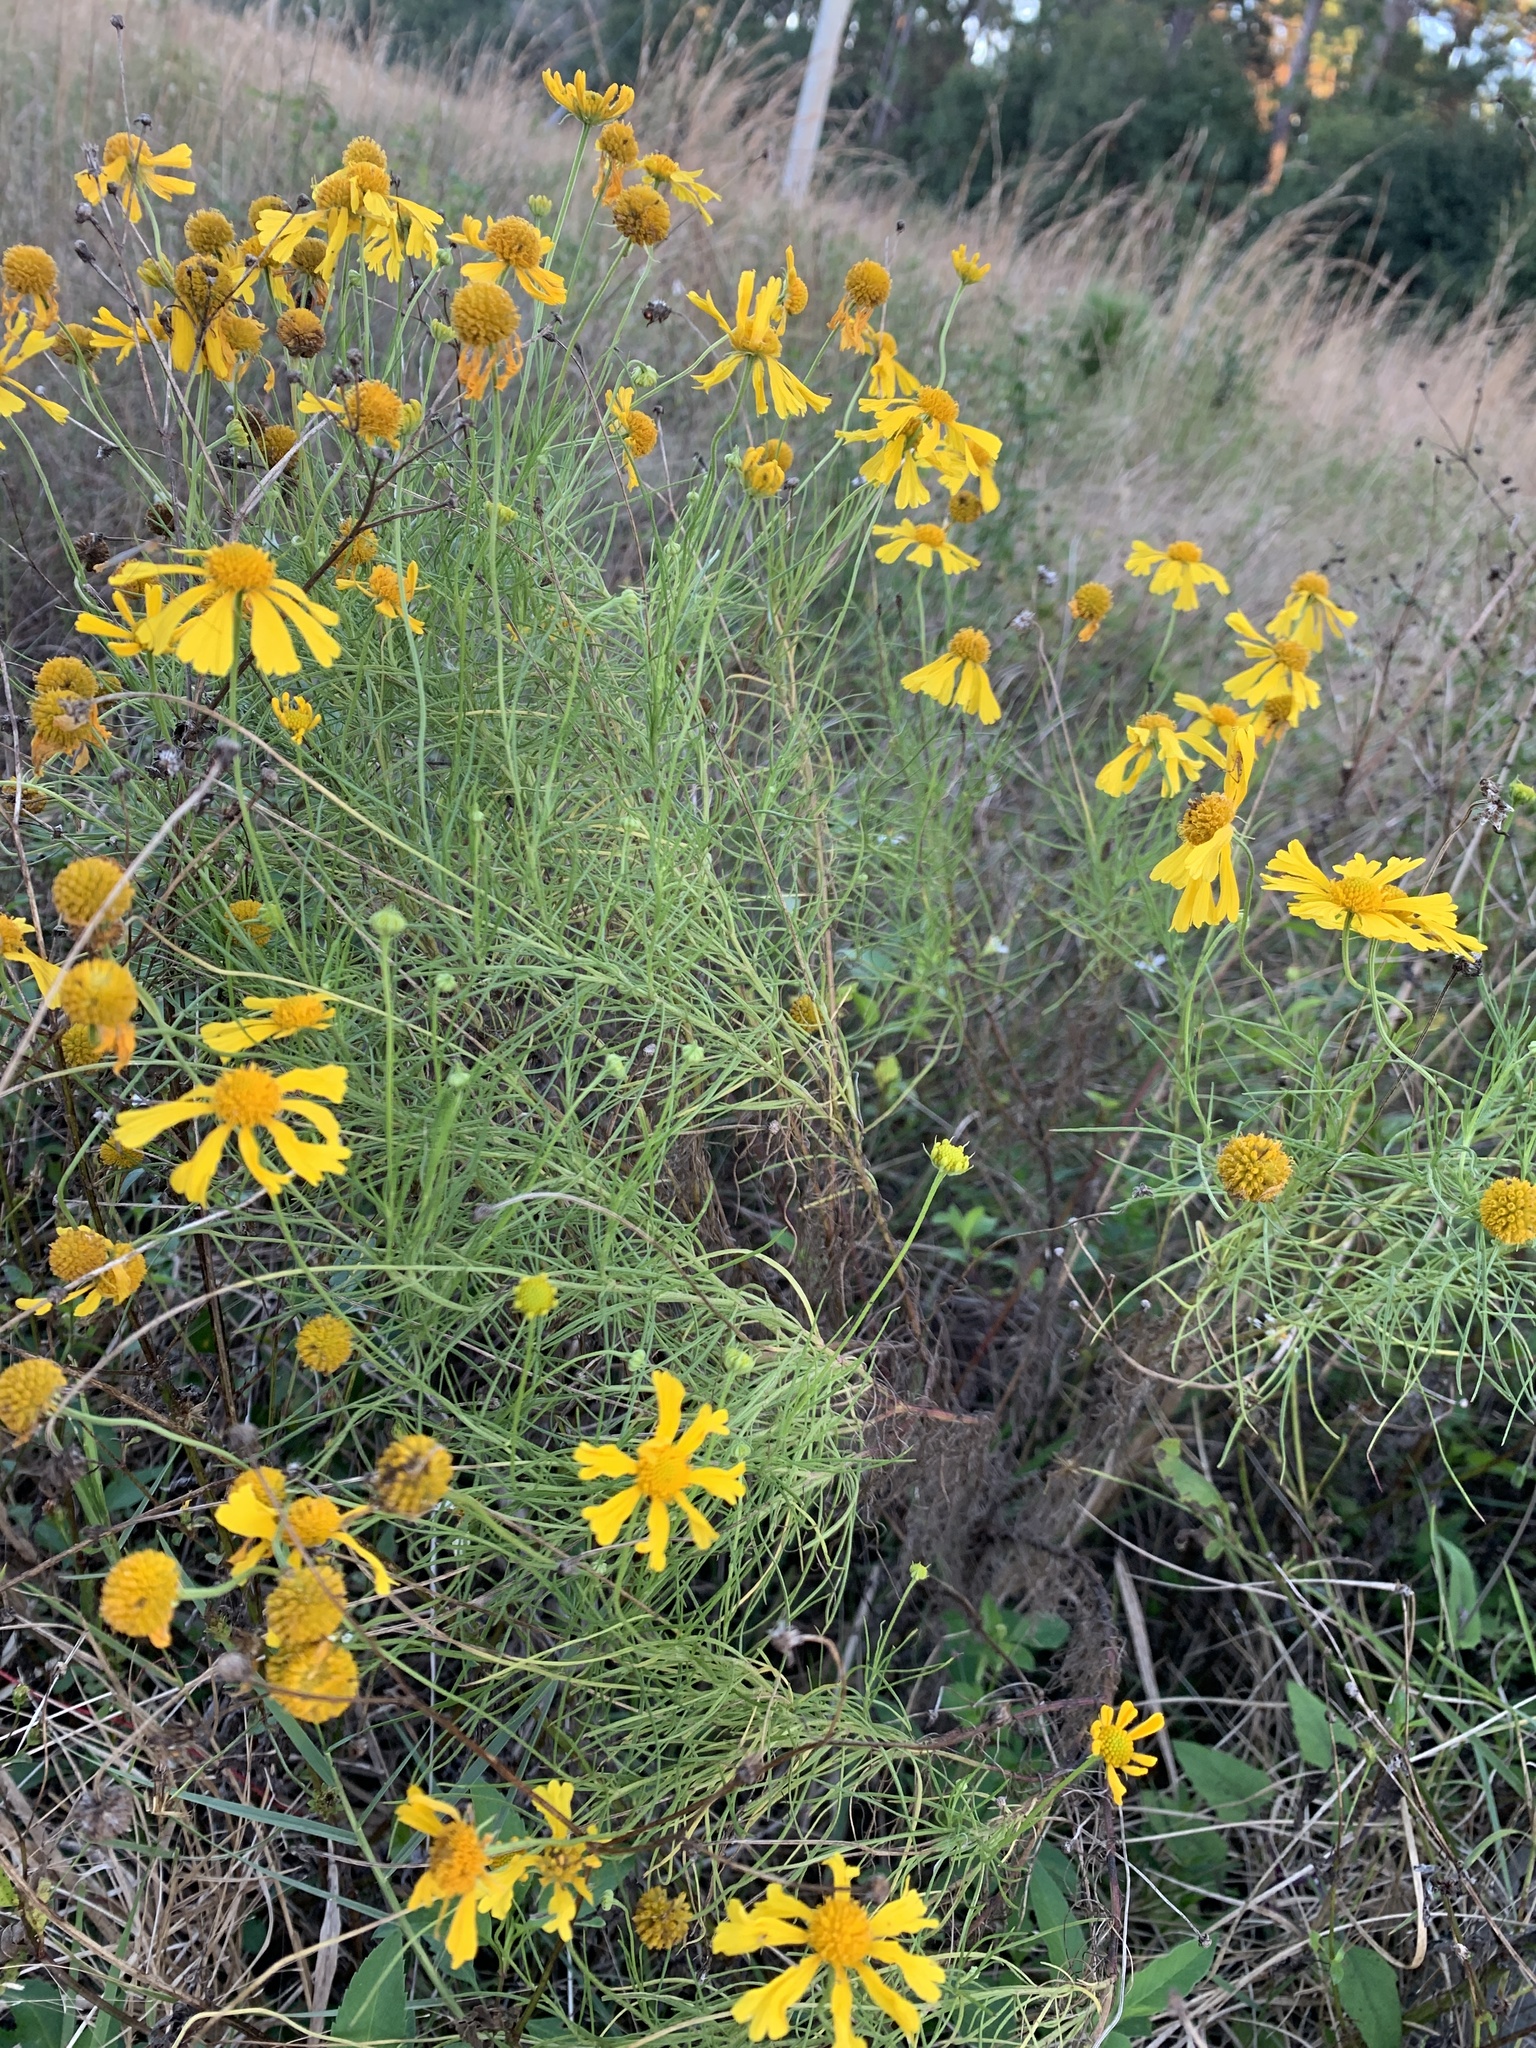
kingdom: Plantae
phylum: Tracheophyta
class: Magnoliopsida
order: Asterales
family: Asteraceae
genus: Helenium
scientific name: Helenium amarum
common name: Bitter sneezeweed
